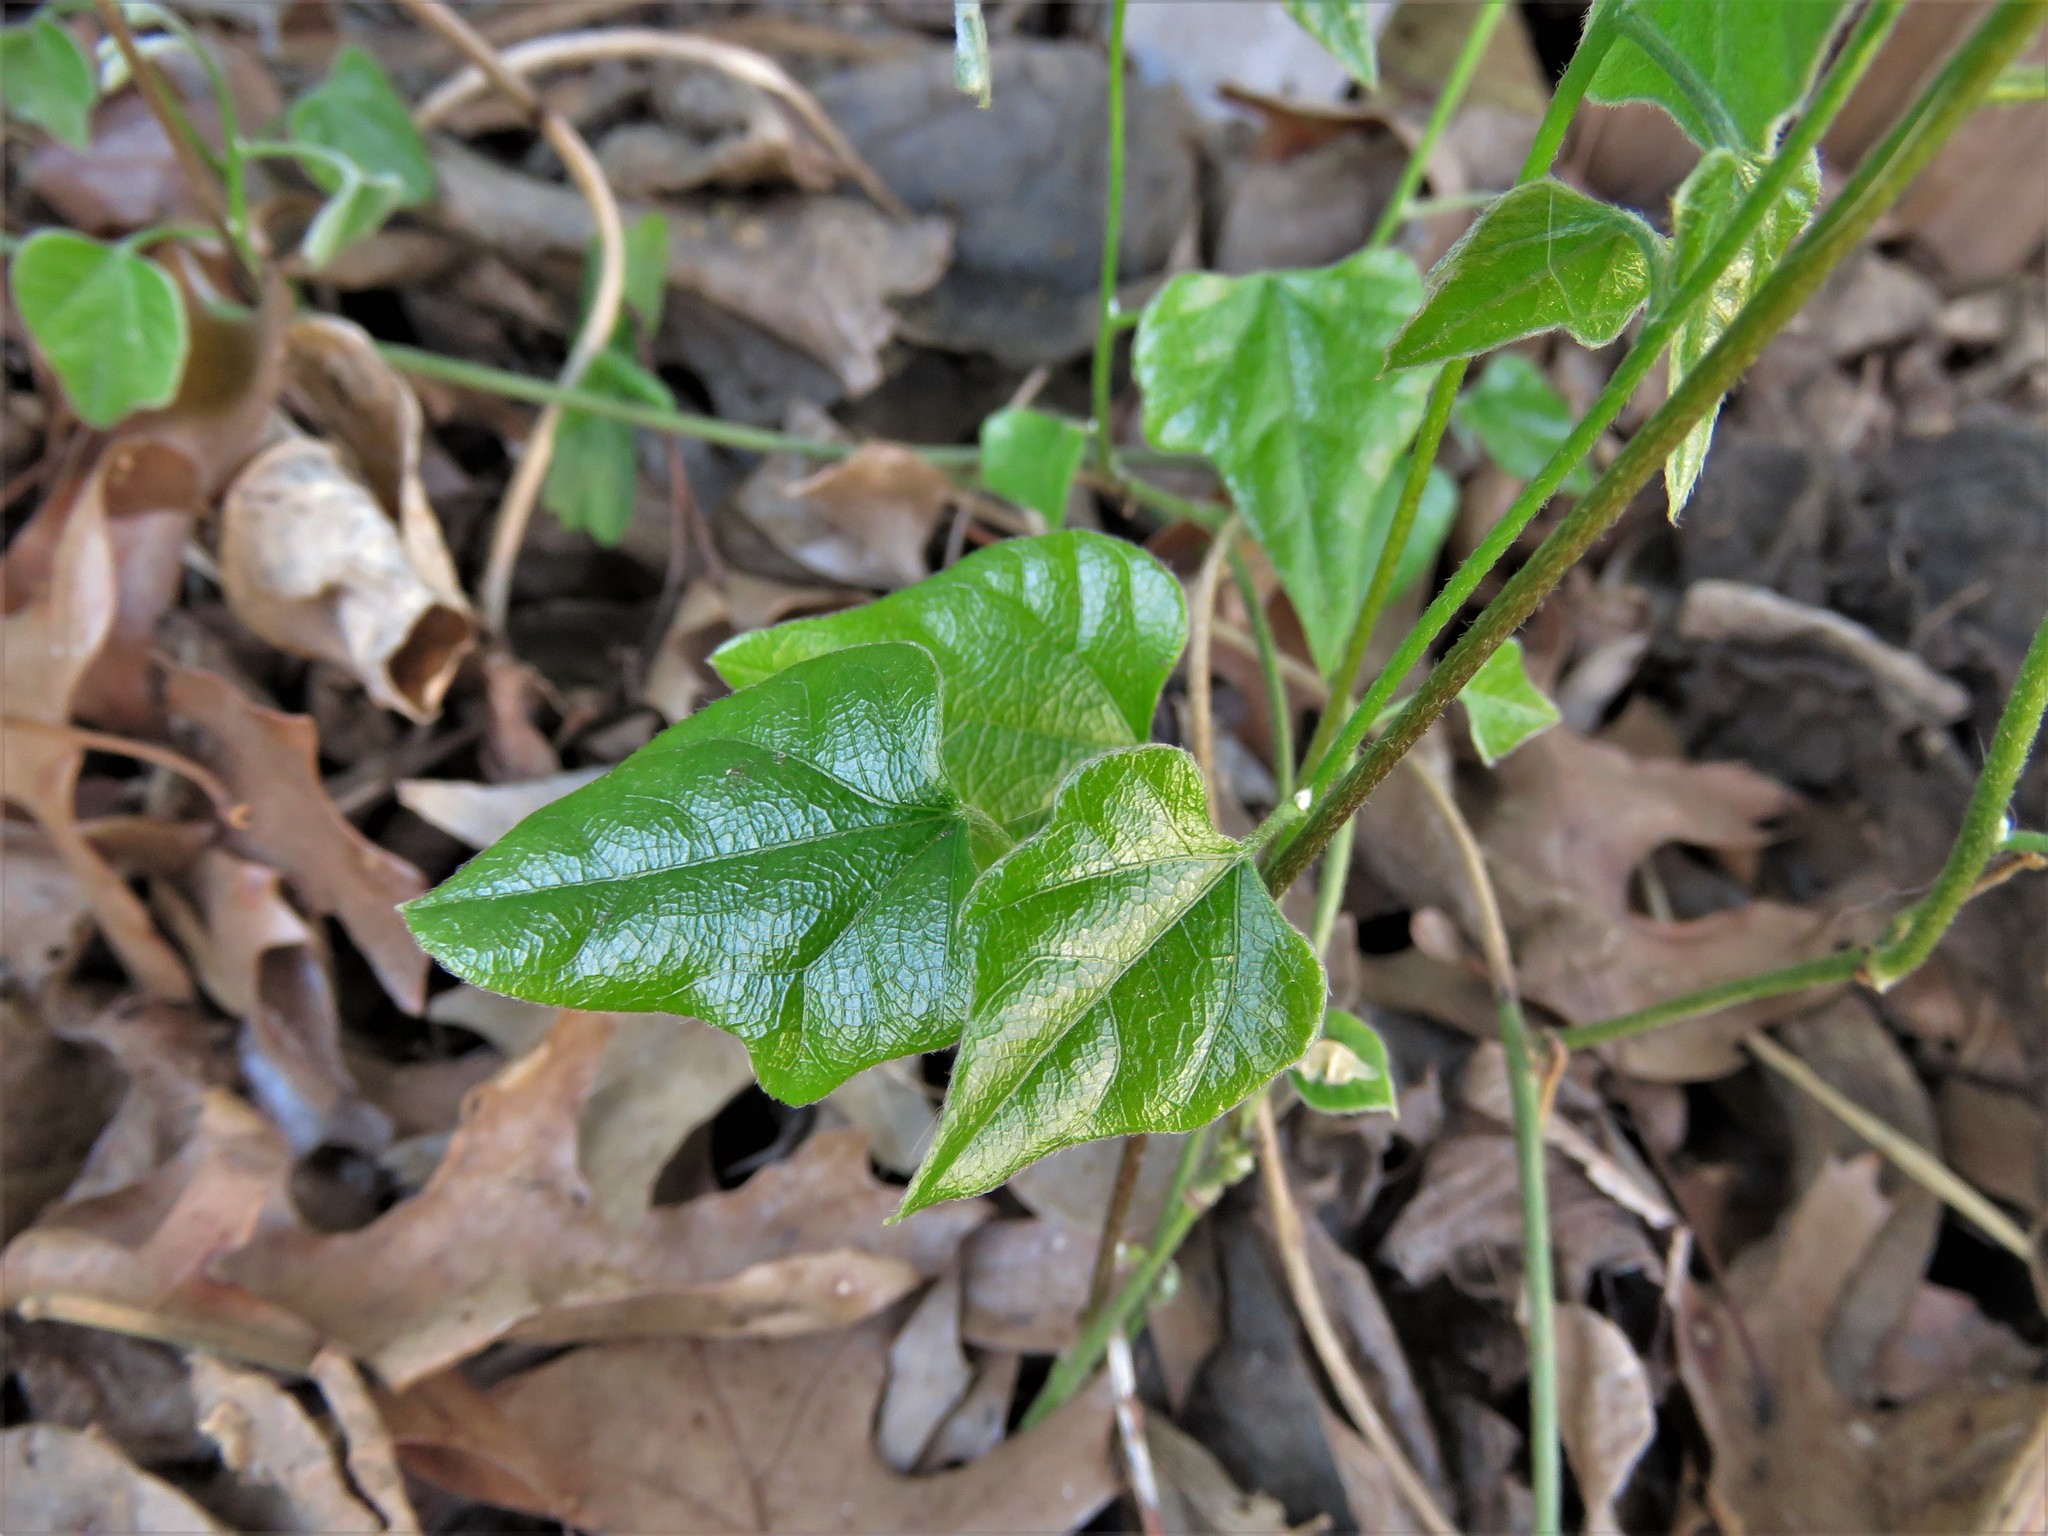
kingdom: Plantae
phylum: Tracheophyta
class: Magnoliopsida
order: Ranunculales
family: Menispermaceae
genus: Cocculus
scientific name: Cocculus carolinus
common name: Carolina moonseed
